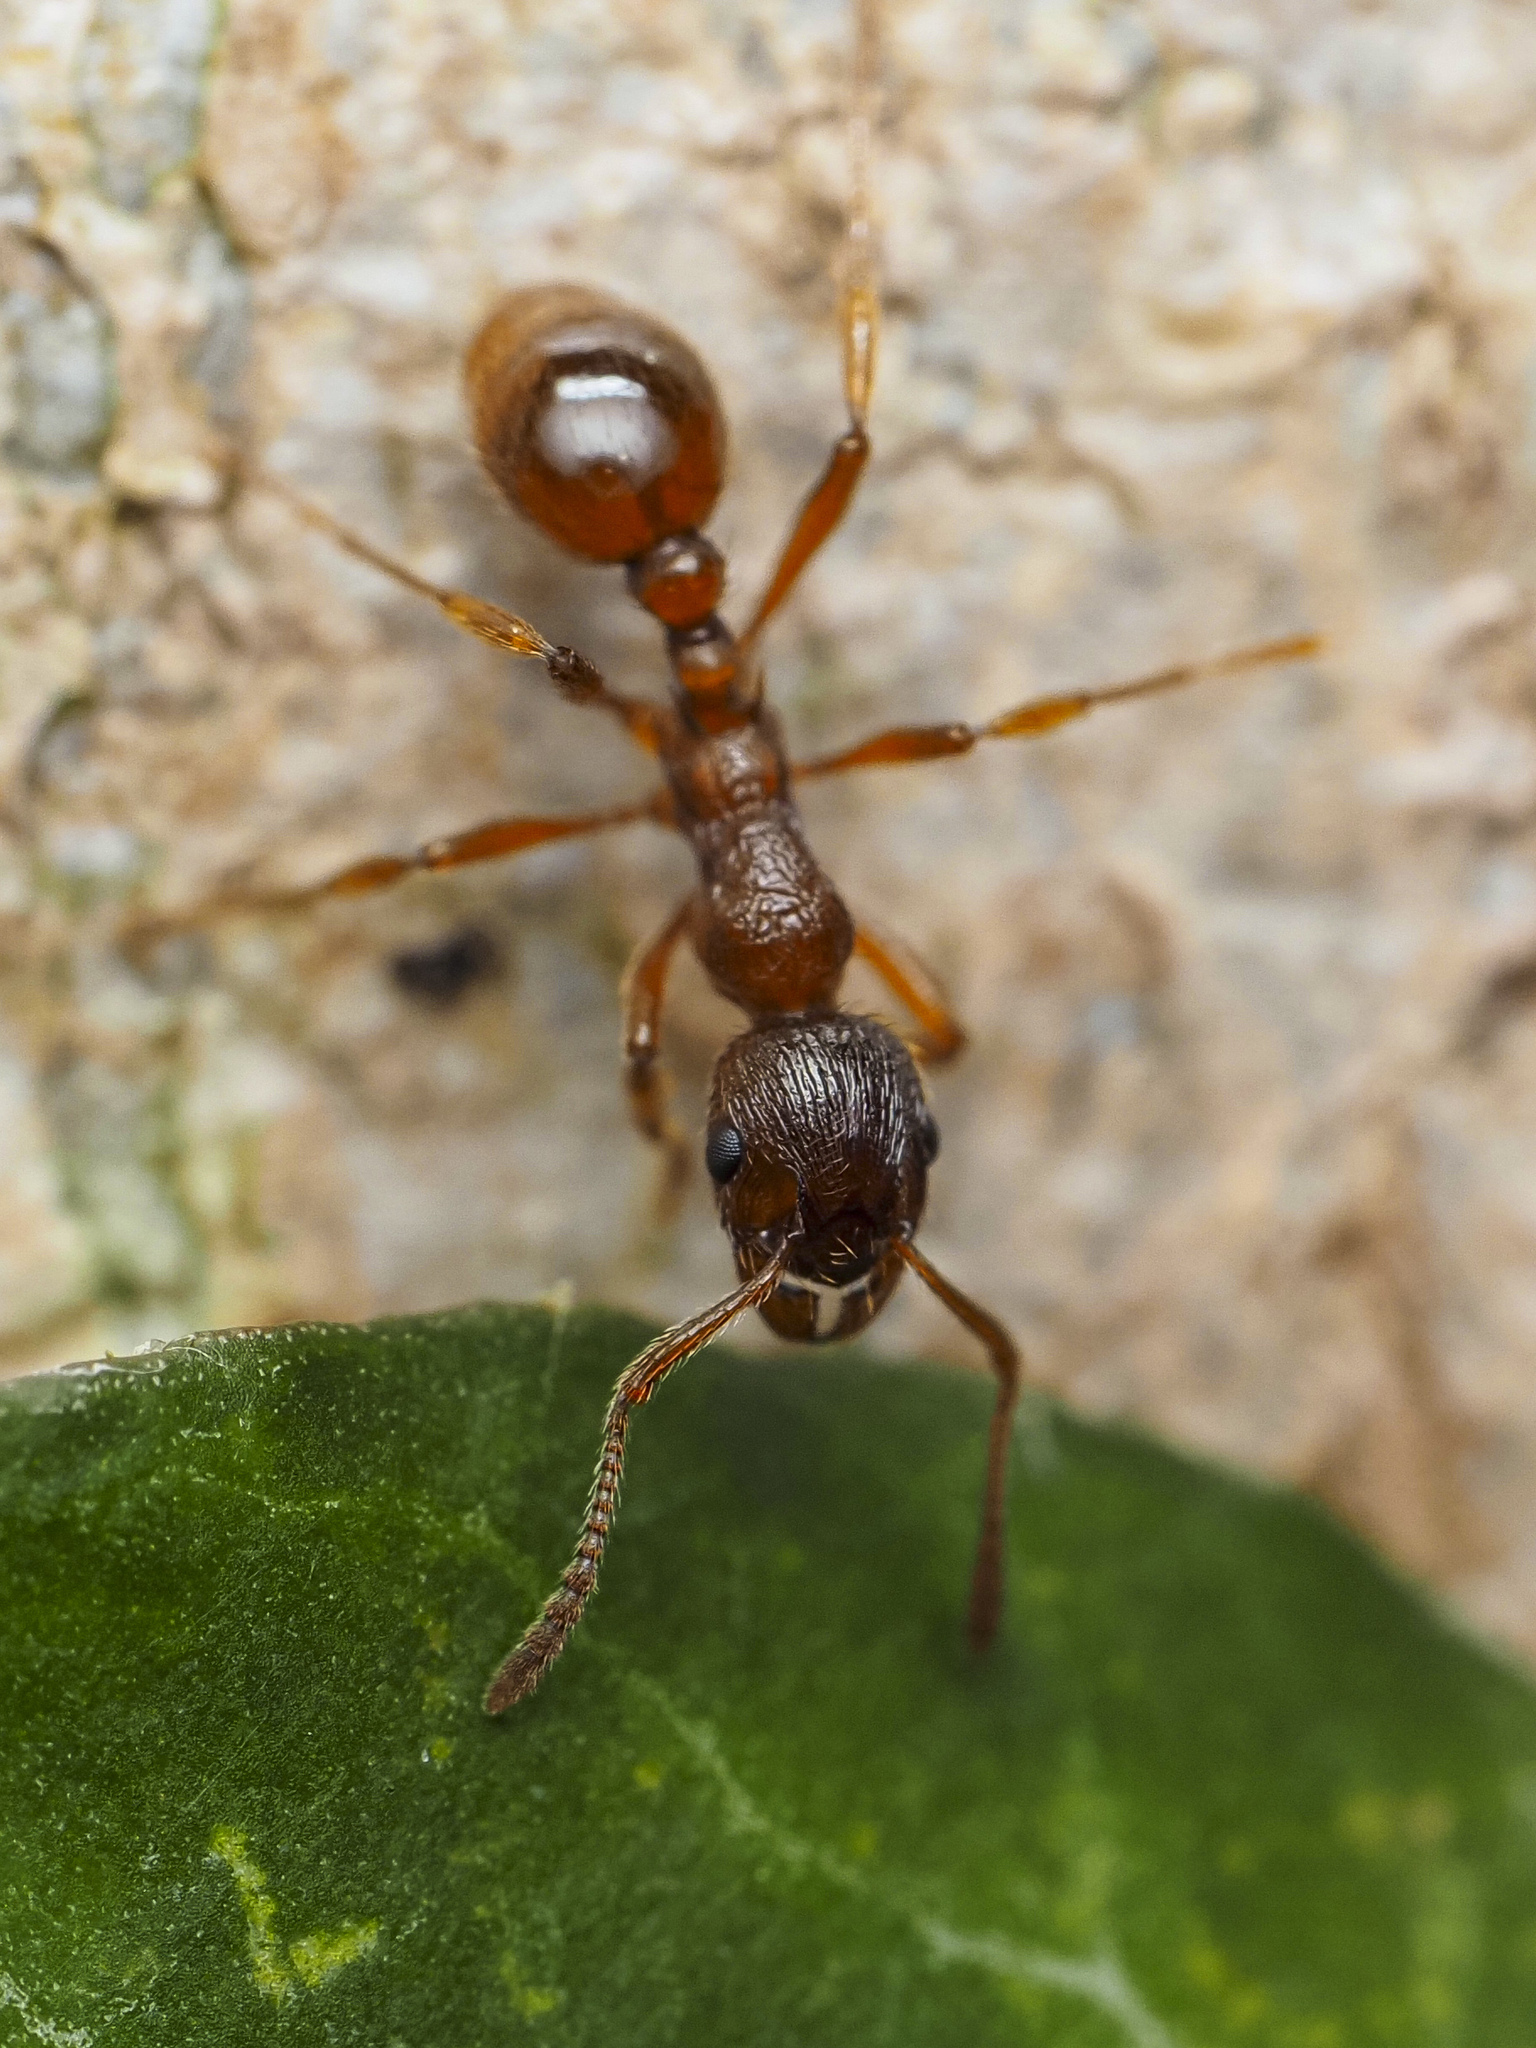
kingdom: Animalia
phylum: Arthropoda
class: Insecta
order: Hymenoptera
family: Formicidae
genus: Myrmica
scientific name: Myrmica rubra
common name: European fire ant
